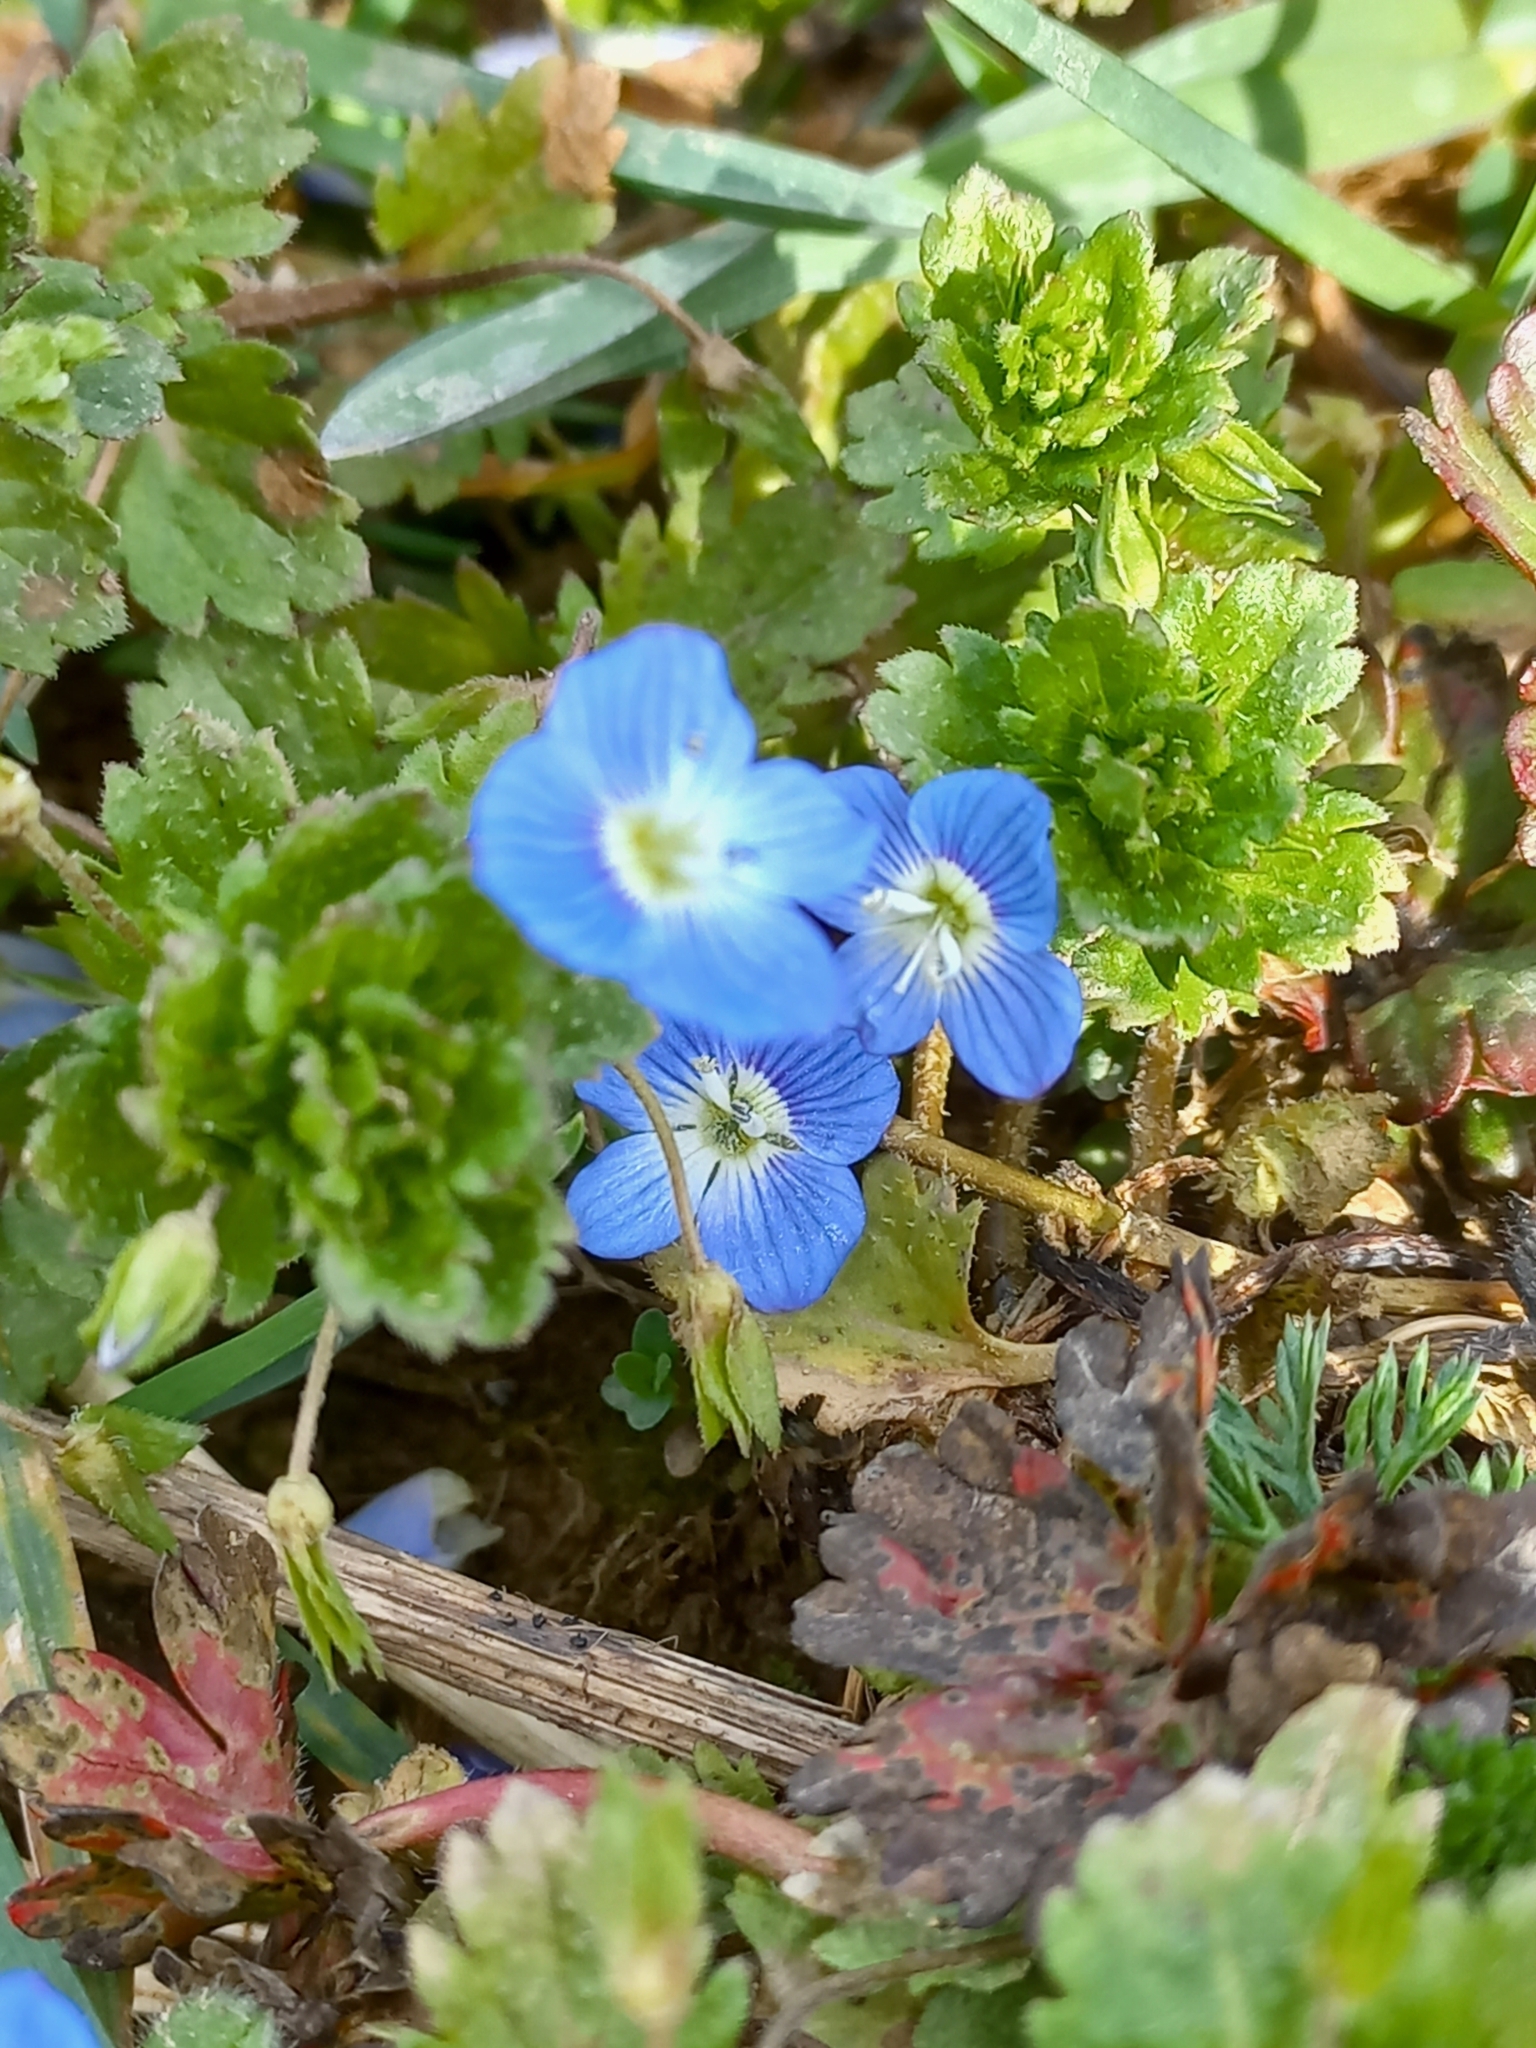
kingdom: Plantae
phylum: Tracheophyta
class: Magnoliopsida
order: Lamiales
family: Plantaginaceae
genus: Veronica
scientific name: Veronica persica
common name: Common field-speedwell
